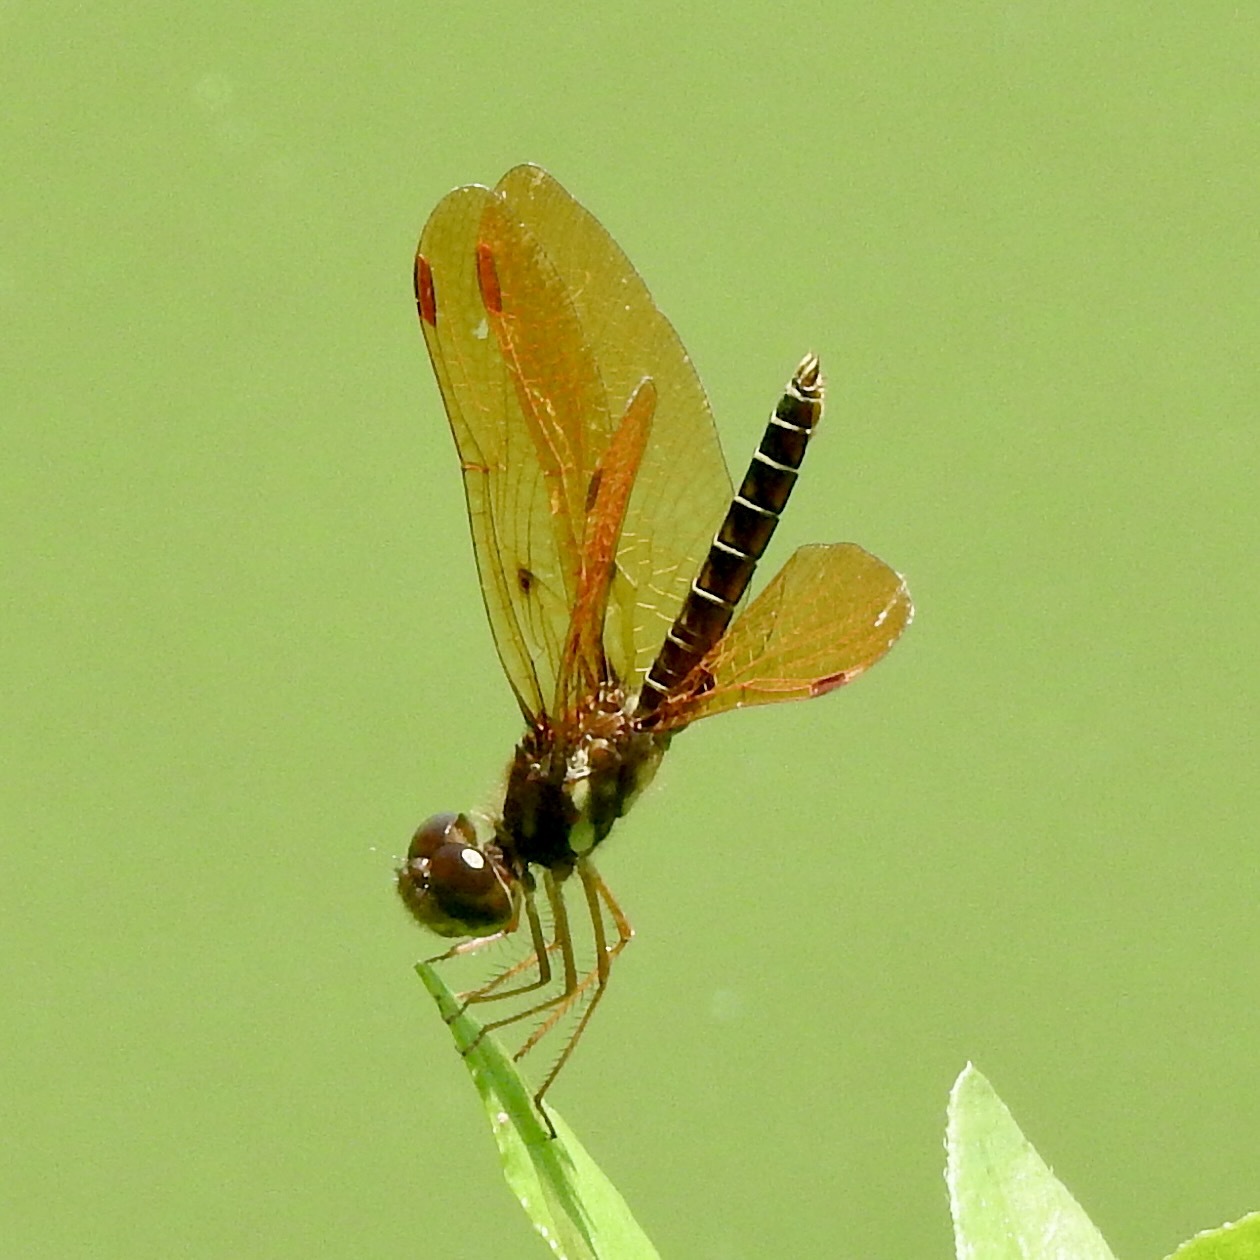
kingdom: Animalia
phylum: Arthropoda
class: Insecta
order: Odonata
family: Libellulidae
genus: Perithemis
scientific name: Perithemis tenera
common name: Eastern amberwing
